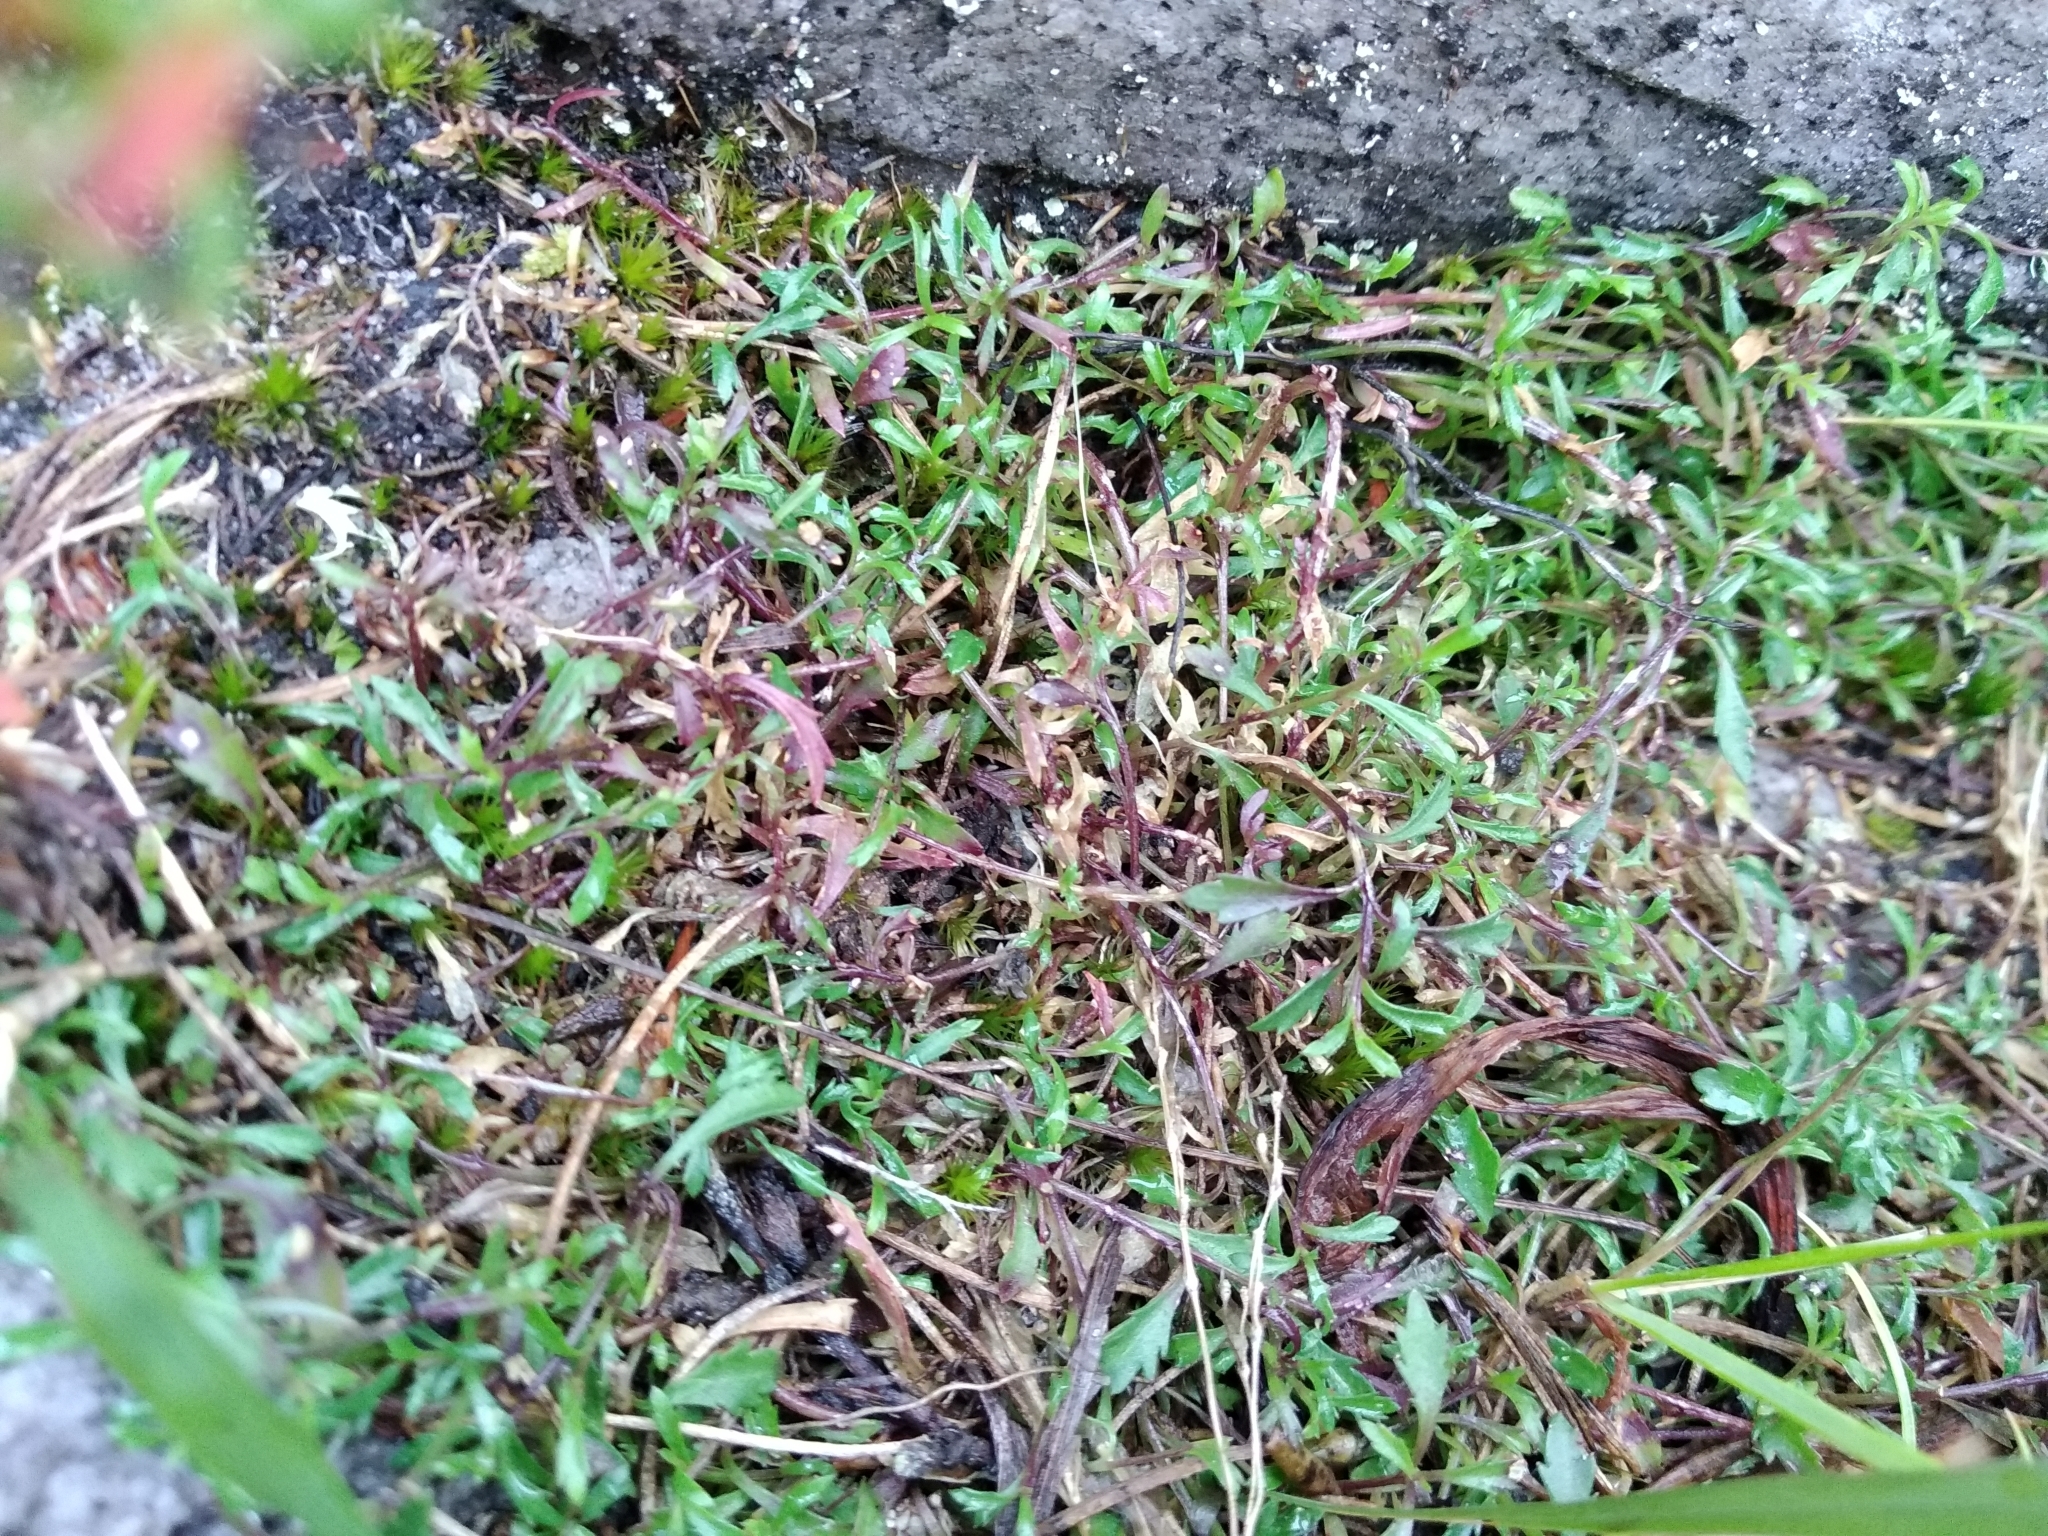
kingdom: Plantae
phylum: Tracheophyta
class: Magnoliopsida
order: Asterales
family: Campanulaceae
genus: Lobelia
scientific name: Lobelia eckloniana
